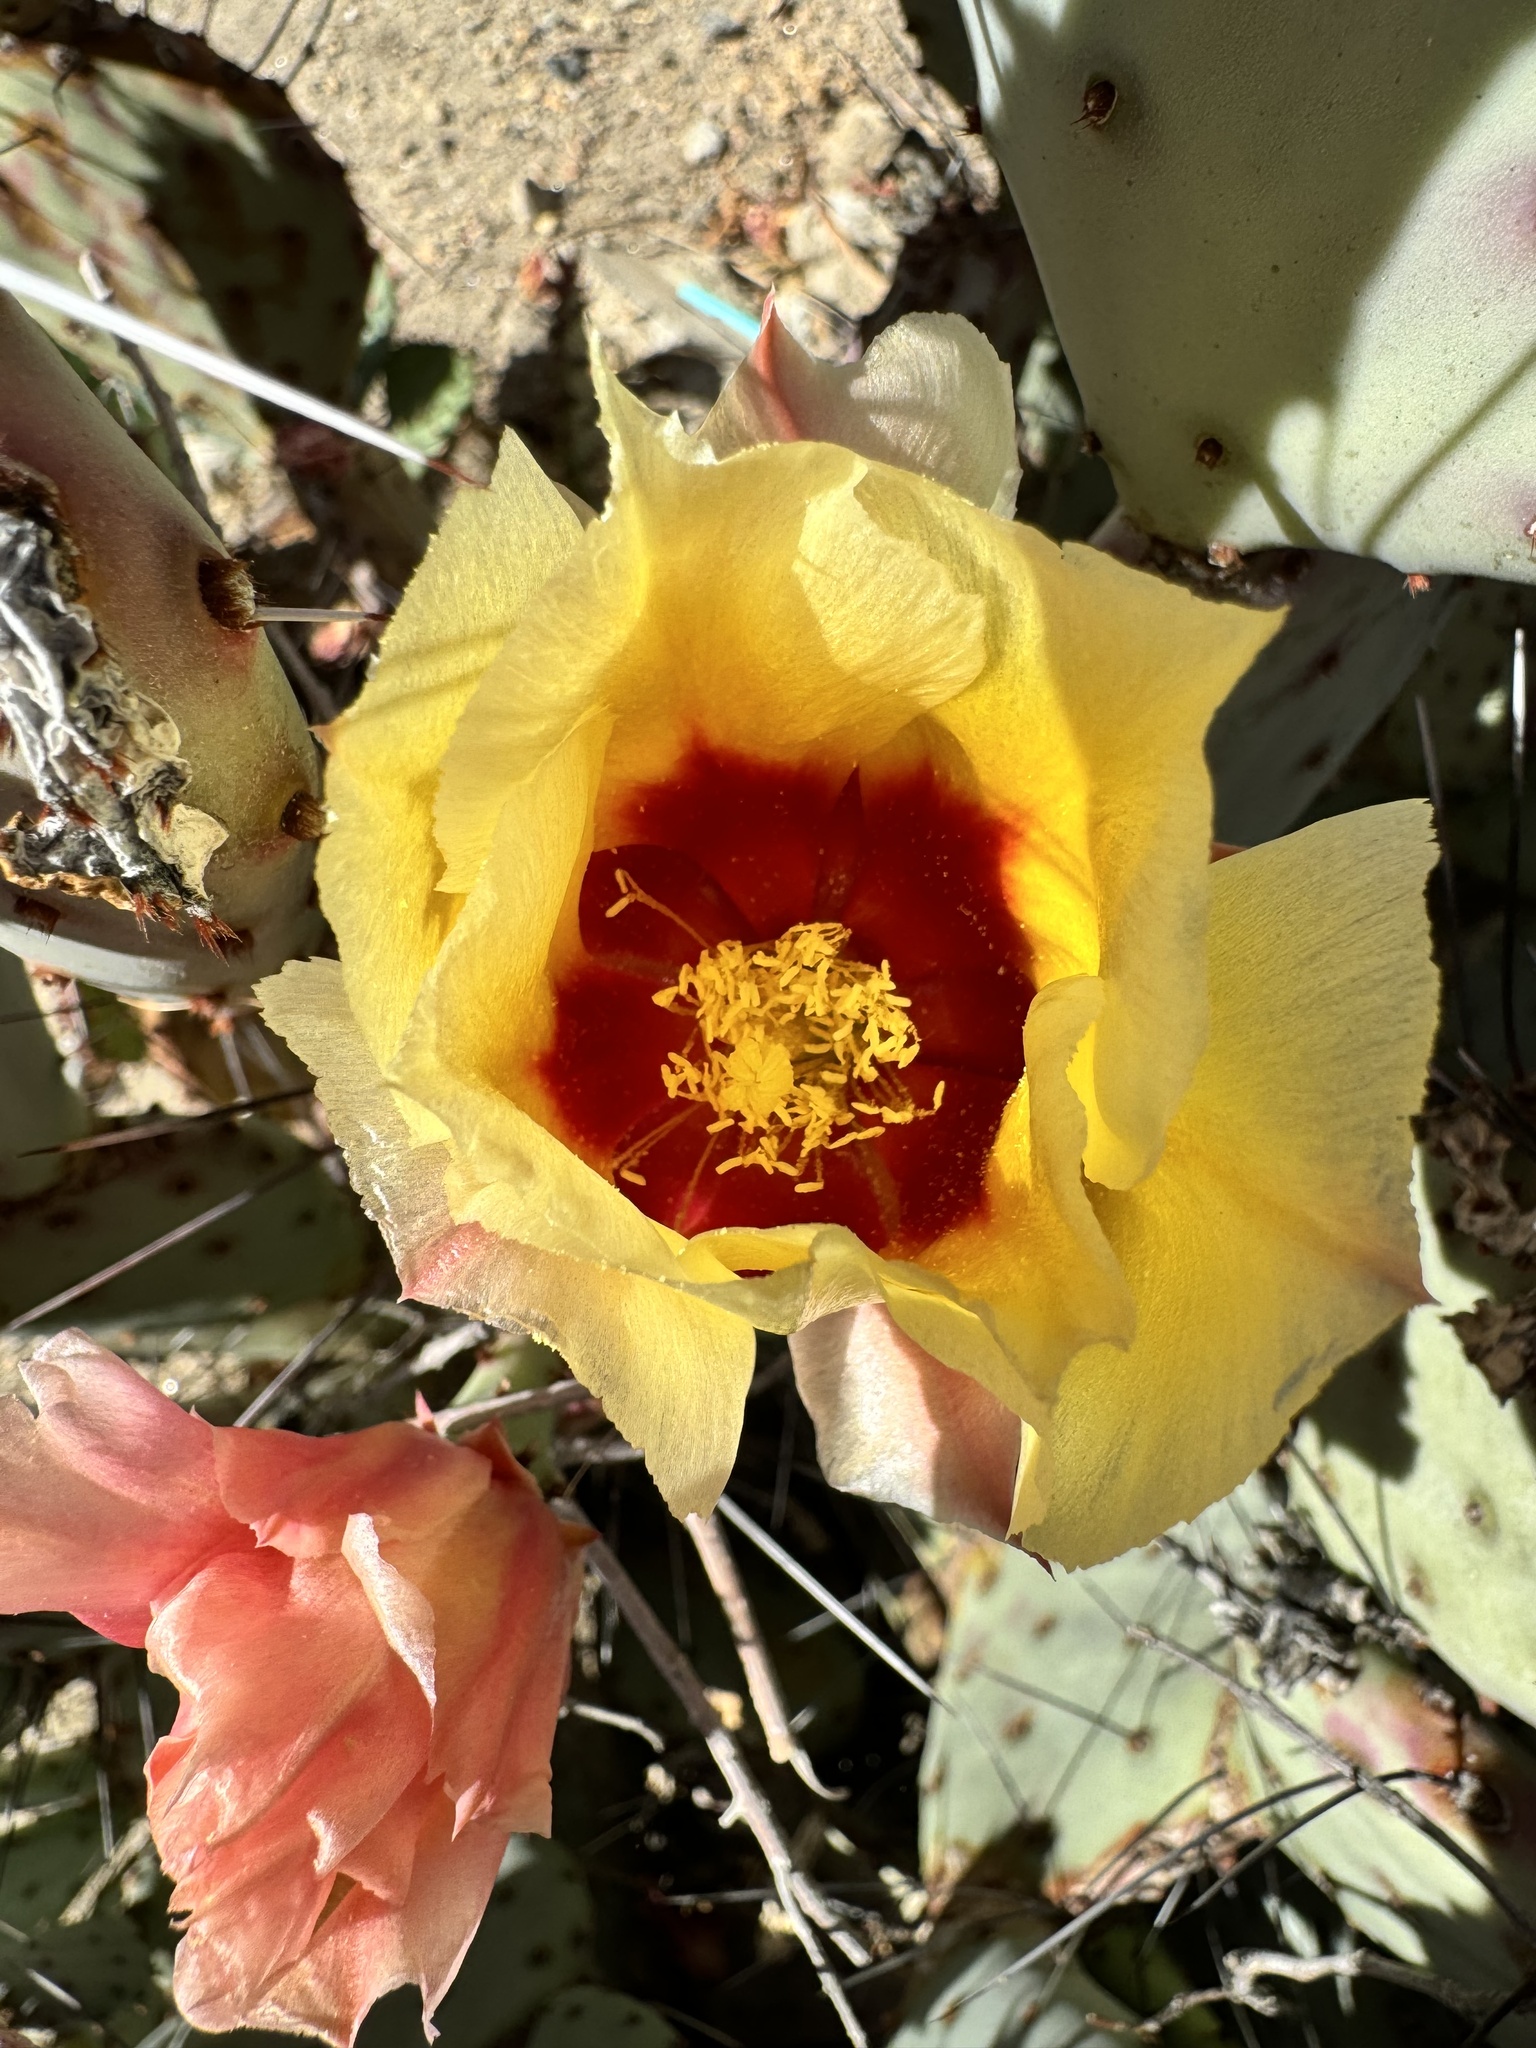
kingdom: Plantae
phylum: Tracheophyta
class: Magnoliopsida
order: Caryophyllales
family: Cactaceae
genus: Opuntia
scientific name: Opuntia engelmannii
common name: Cactus-apple
